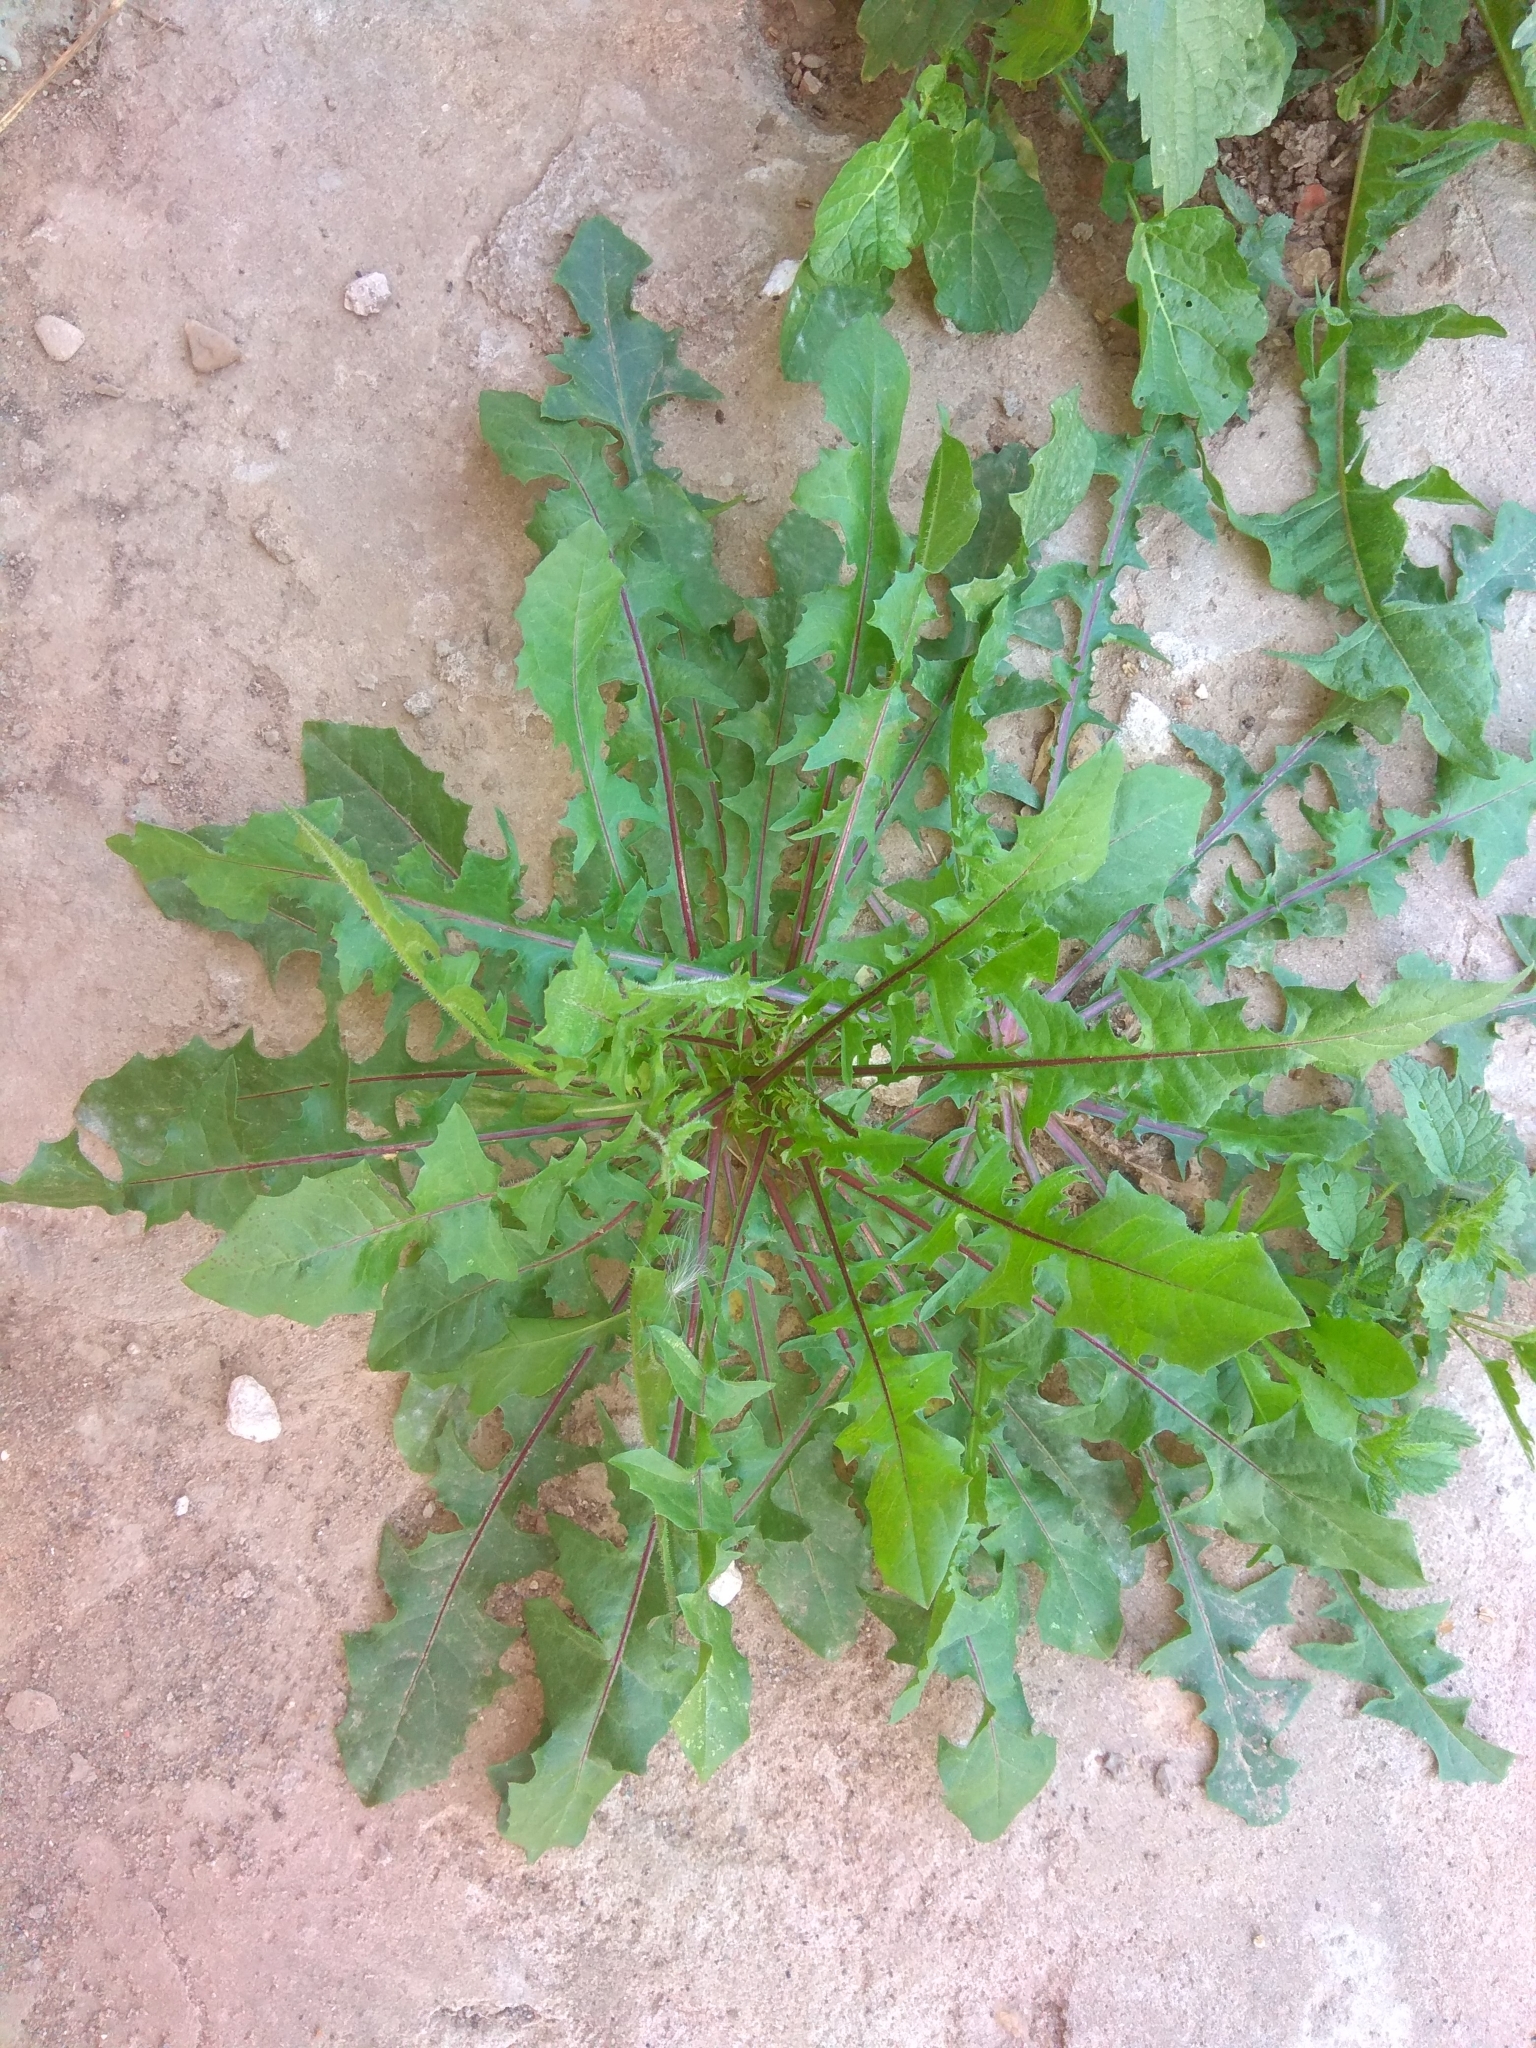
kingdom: Plantae
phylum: Tracheophyta
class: Magnoliopsida
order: Asterales
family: Asteraceae
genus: Taraxacum
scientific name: Taraxacum officinale
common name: Common dandelion
